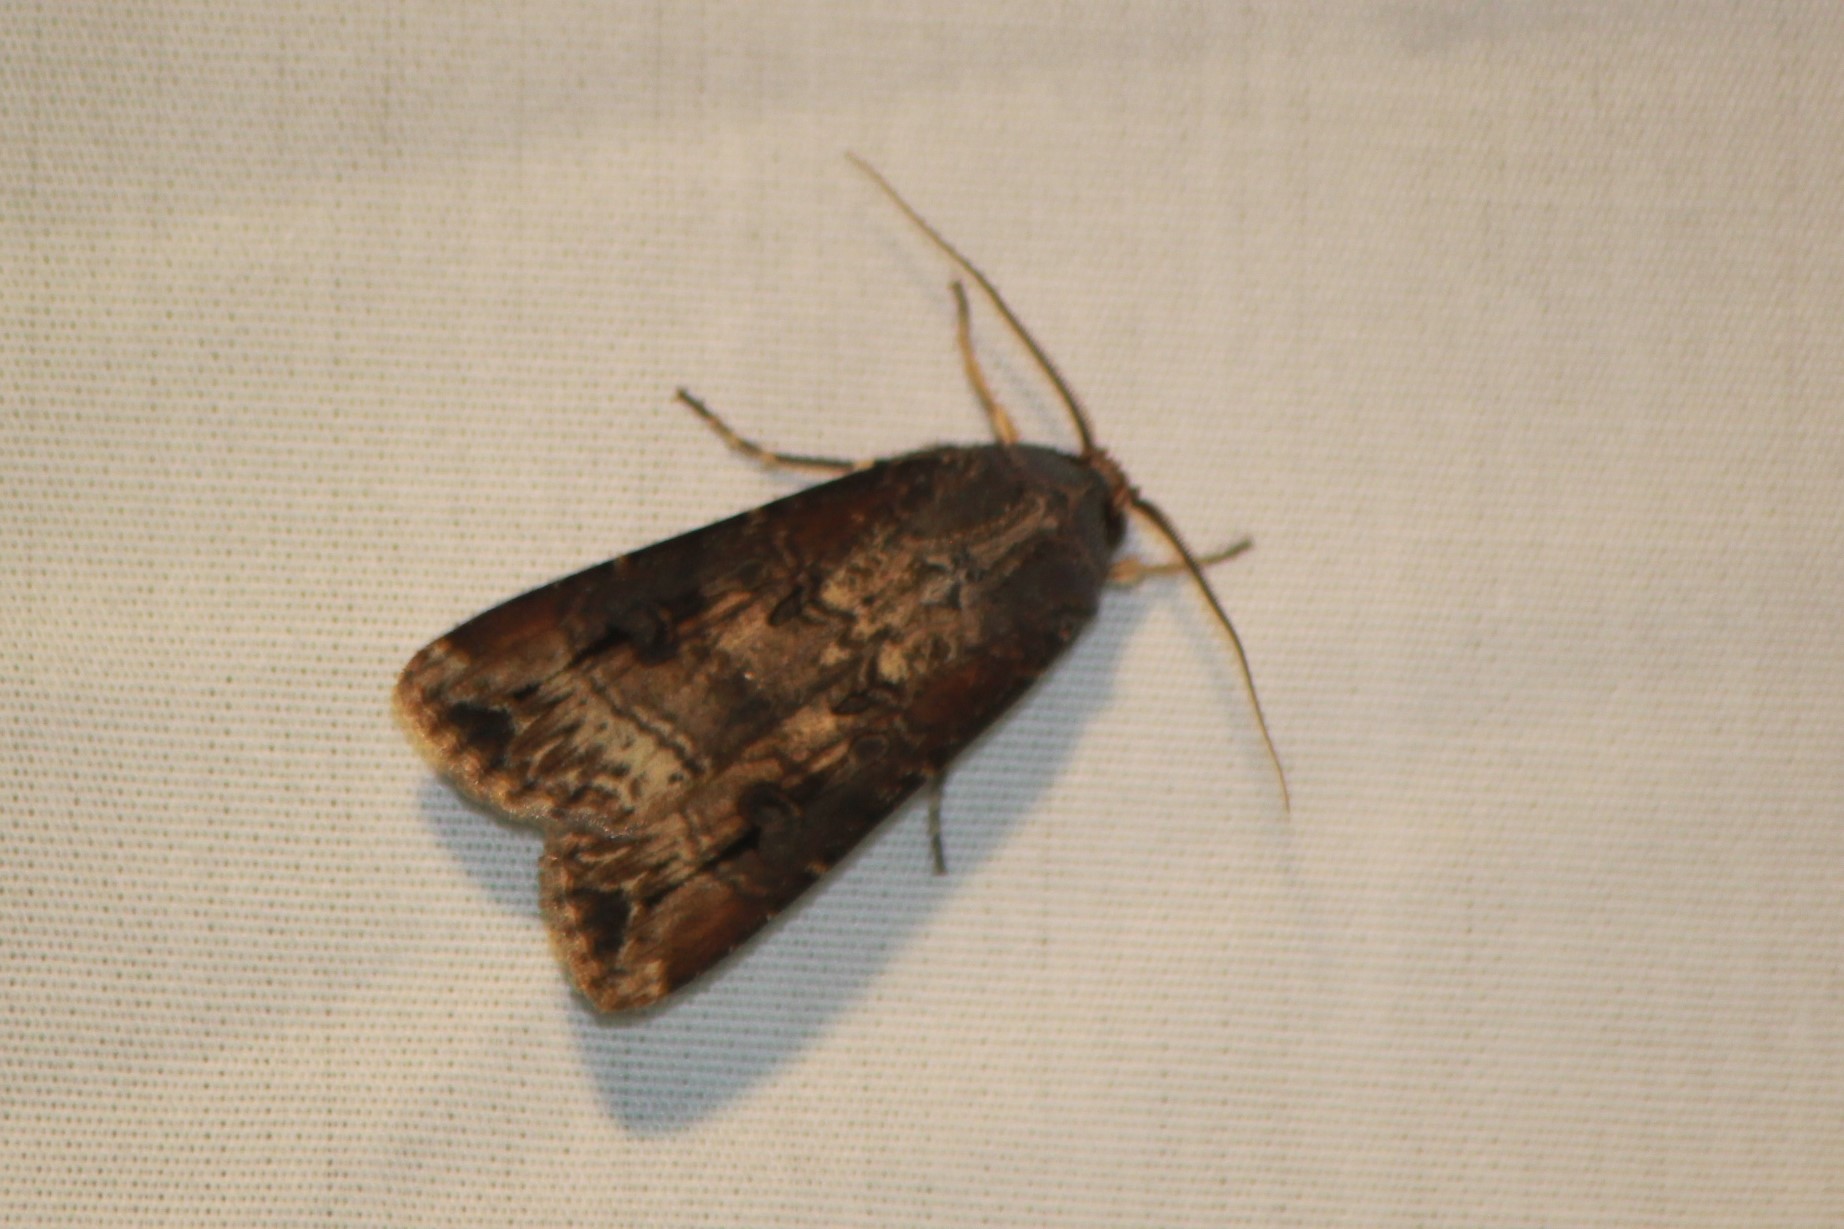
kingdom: Animalia
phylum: Arthropoda
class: Insecta
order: Lepidoptera
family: Noctuidae
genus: Agrotis
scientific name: Agrotis ipsilon
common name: Dark sword-grass
